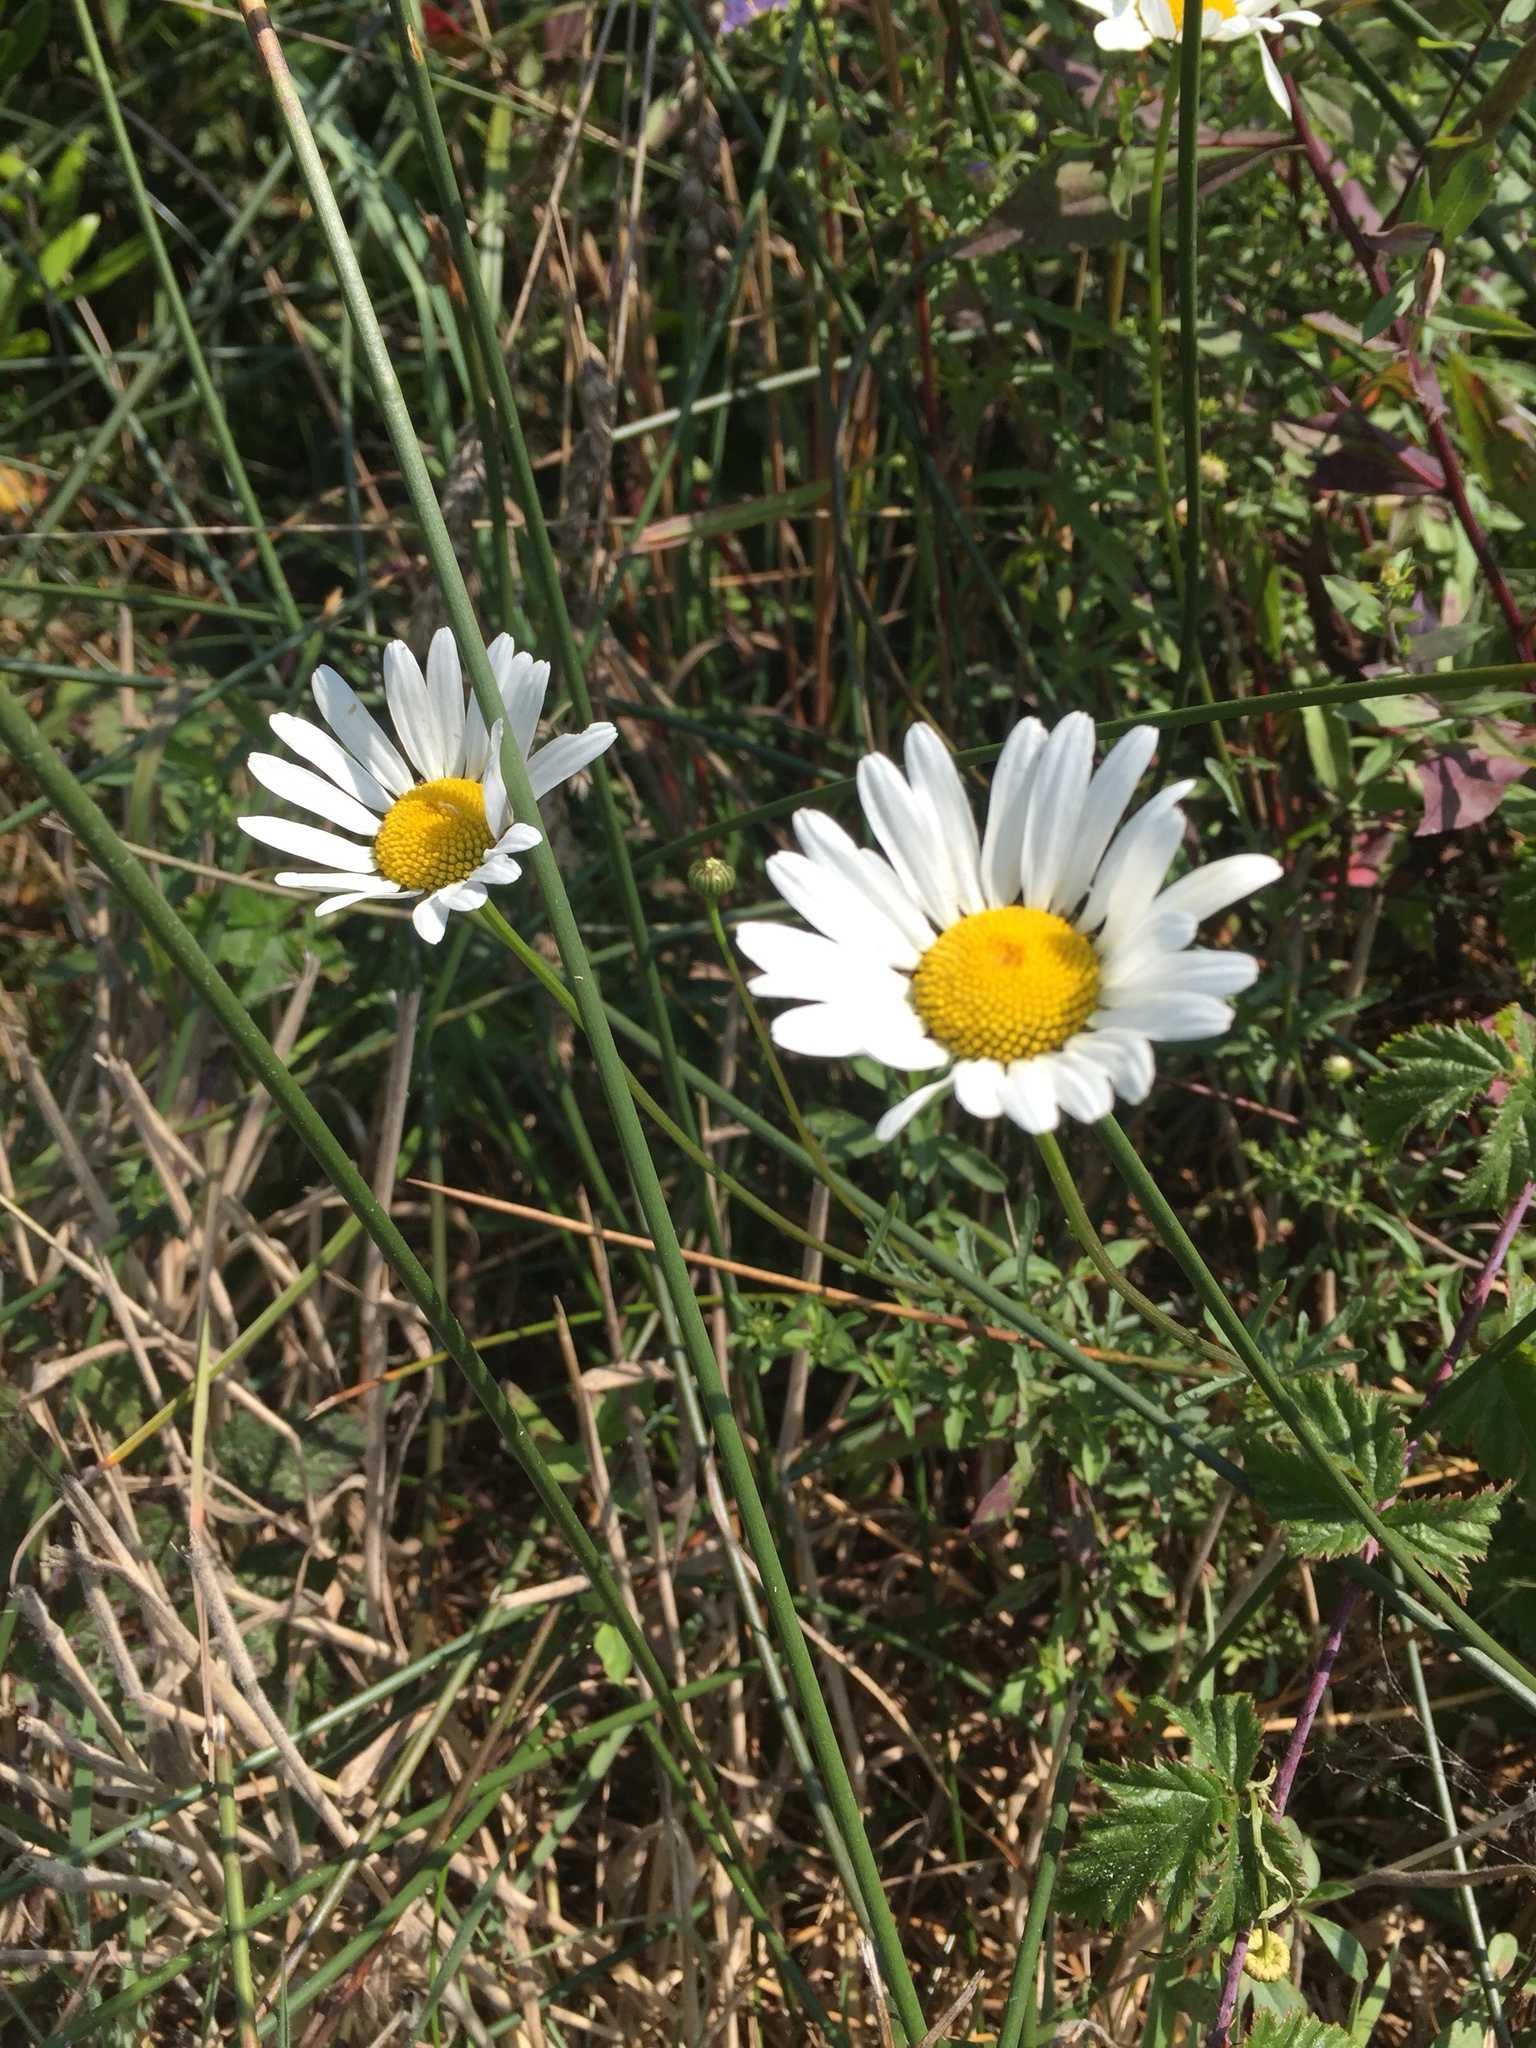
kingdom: Plantae
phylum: Tracheophyta
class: Magnoliopsida
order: Asterales
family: Asteraceae
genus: Leucanthemum
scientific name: Leucanthemum vulgare
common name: Oxeye daisy
